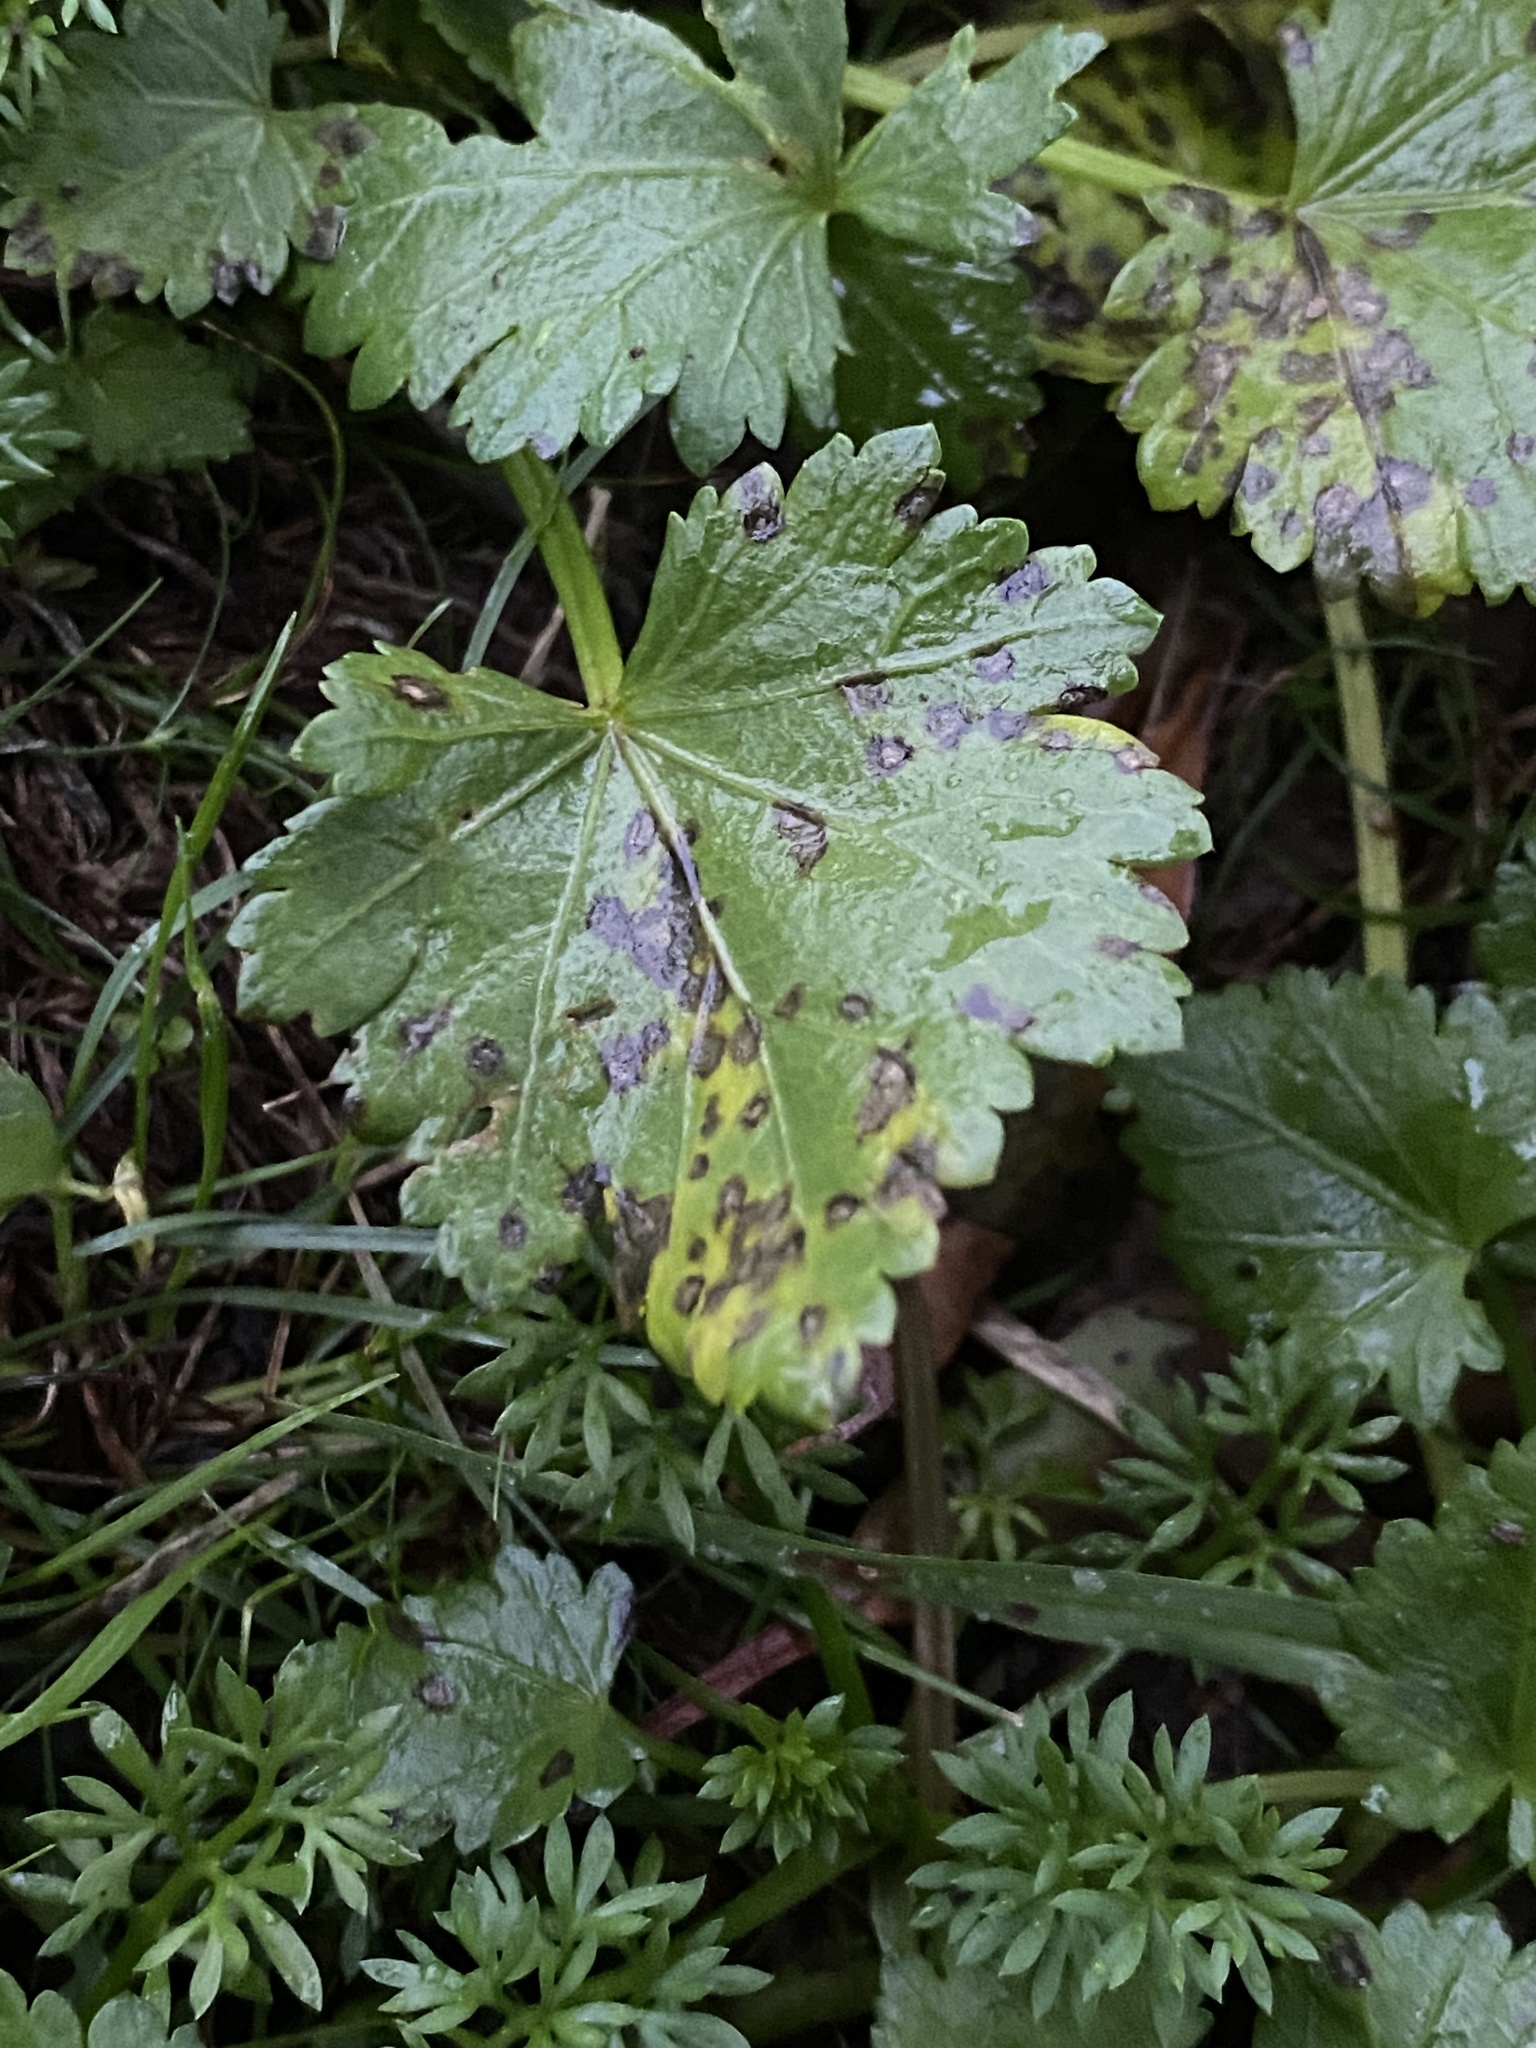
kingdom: Plantae
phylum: Tracheophyta
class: Magnoliopsida
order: Malvales
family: Malvaceae
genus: Modiola
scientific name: Modiola caroliniana
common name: Carolina bristlemallow
